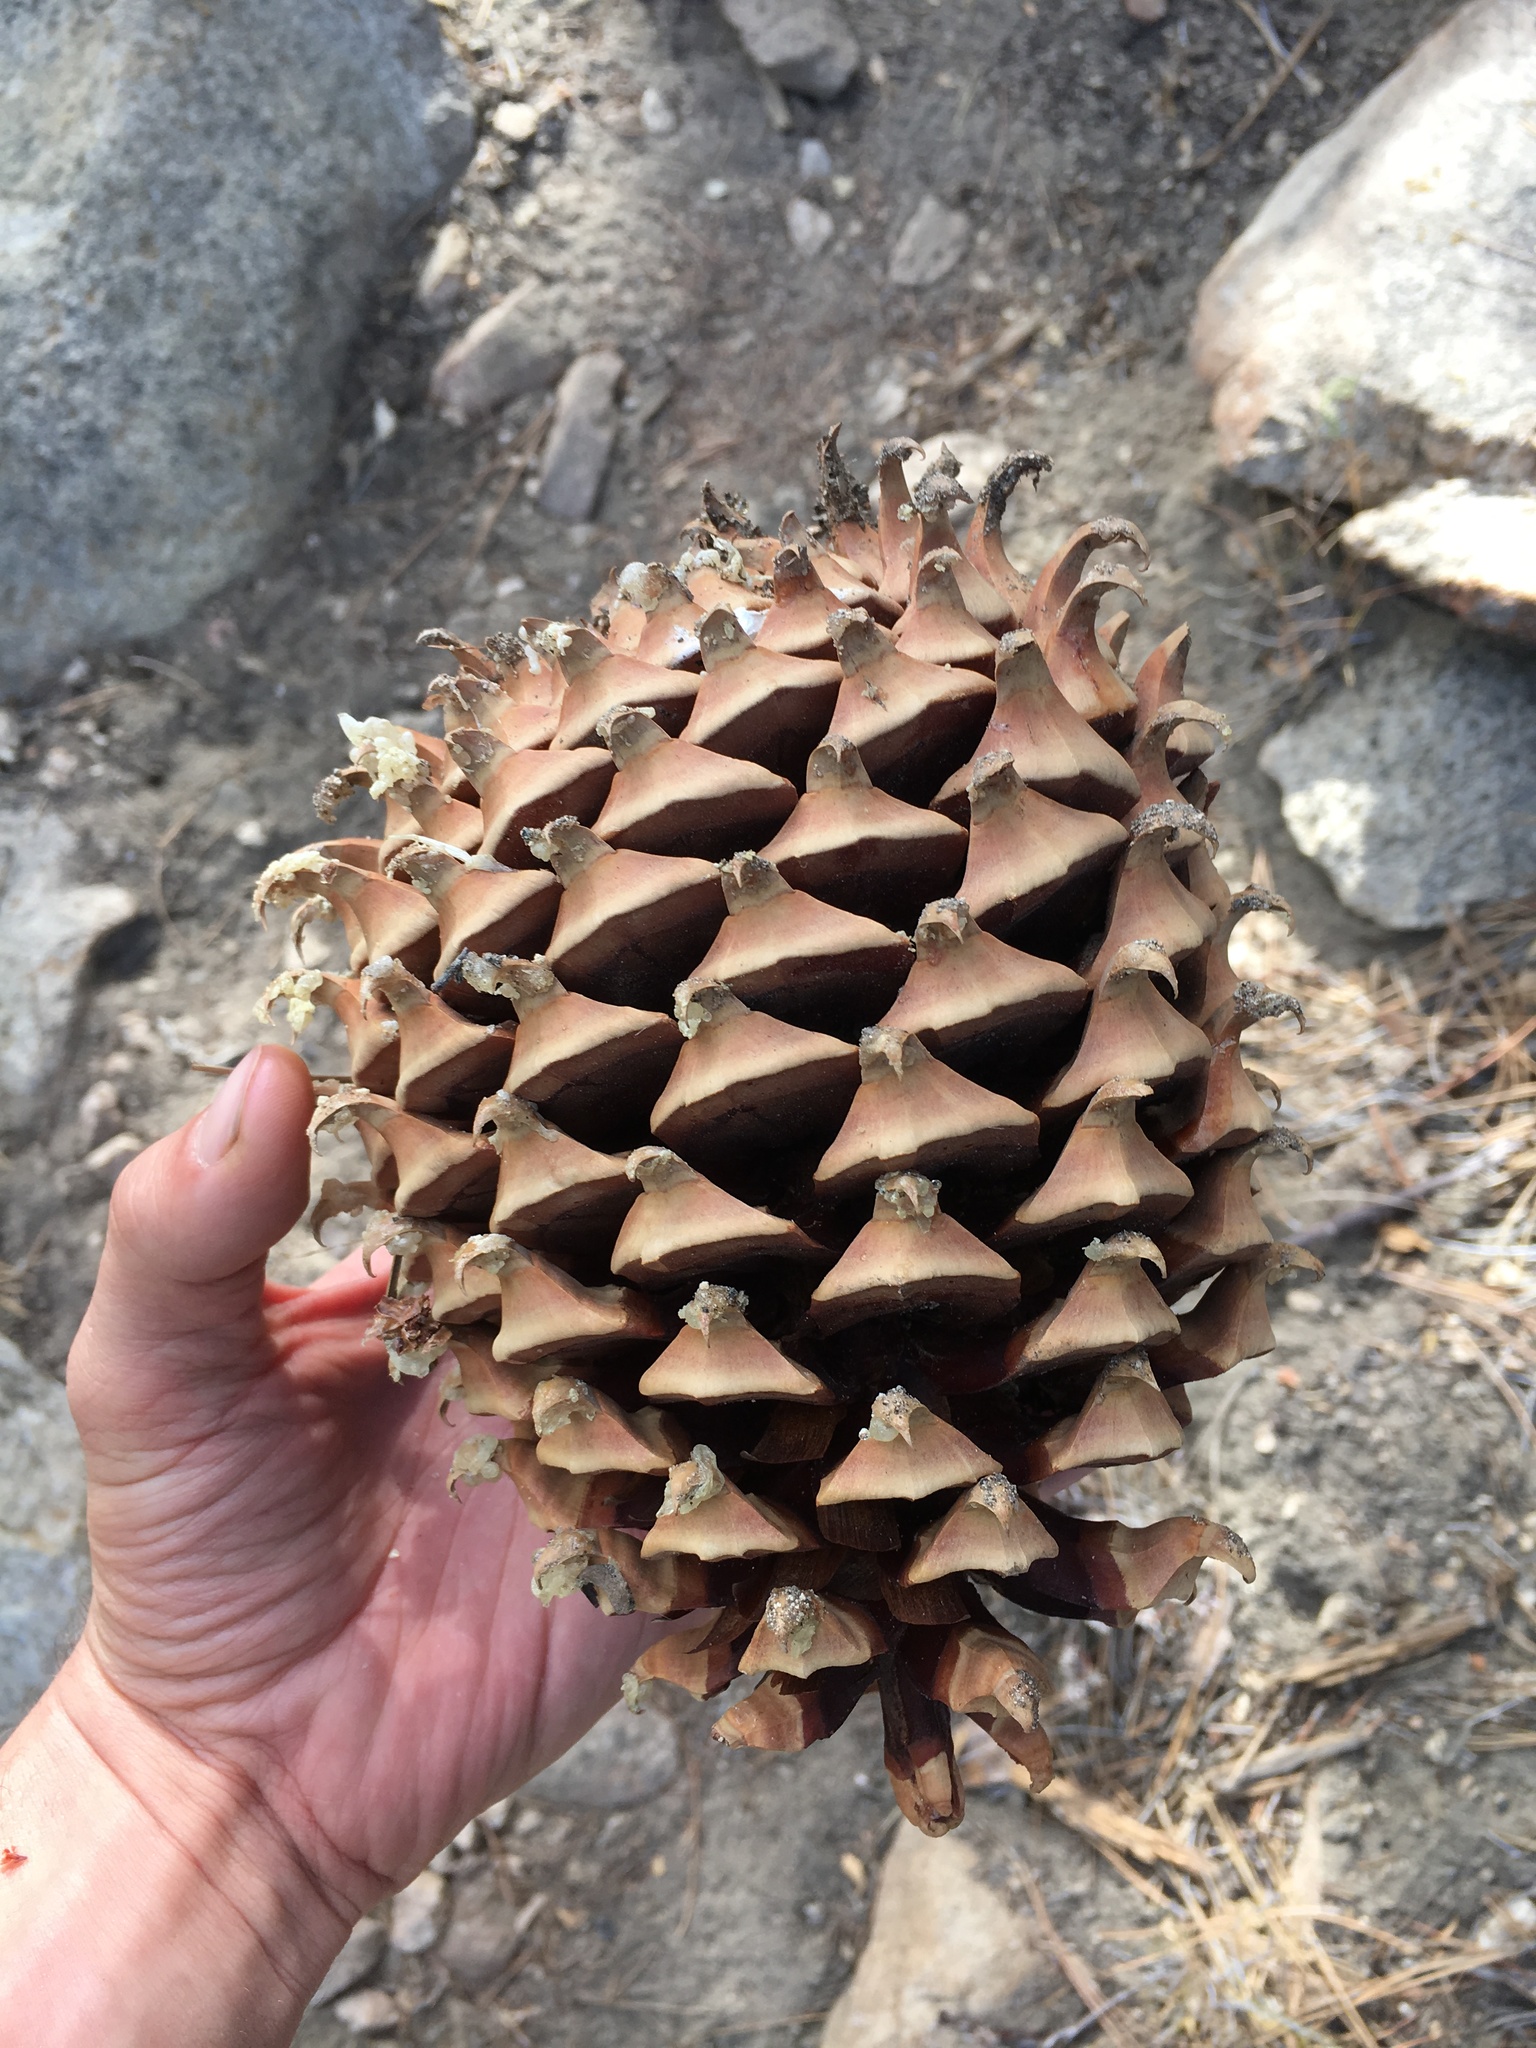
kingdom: Plantae
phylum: Tracheophyta
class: Pinopsida
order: Pinales
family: Pinaceae
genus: Pinus
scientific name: Pinus coulteri
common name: Coulter pine
